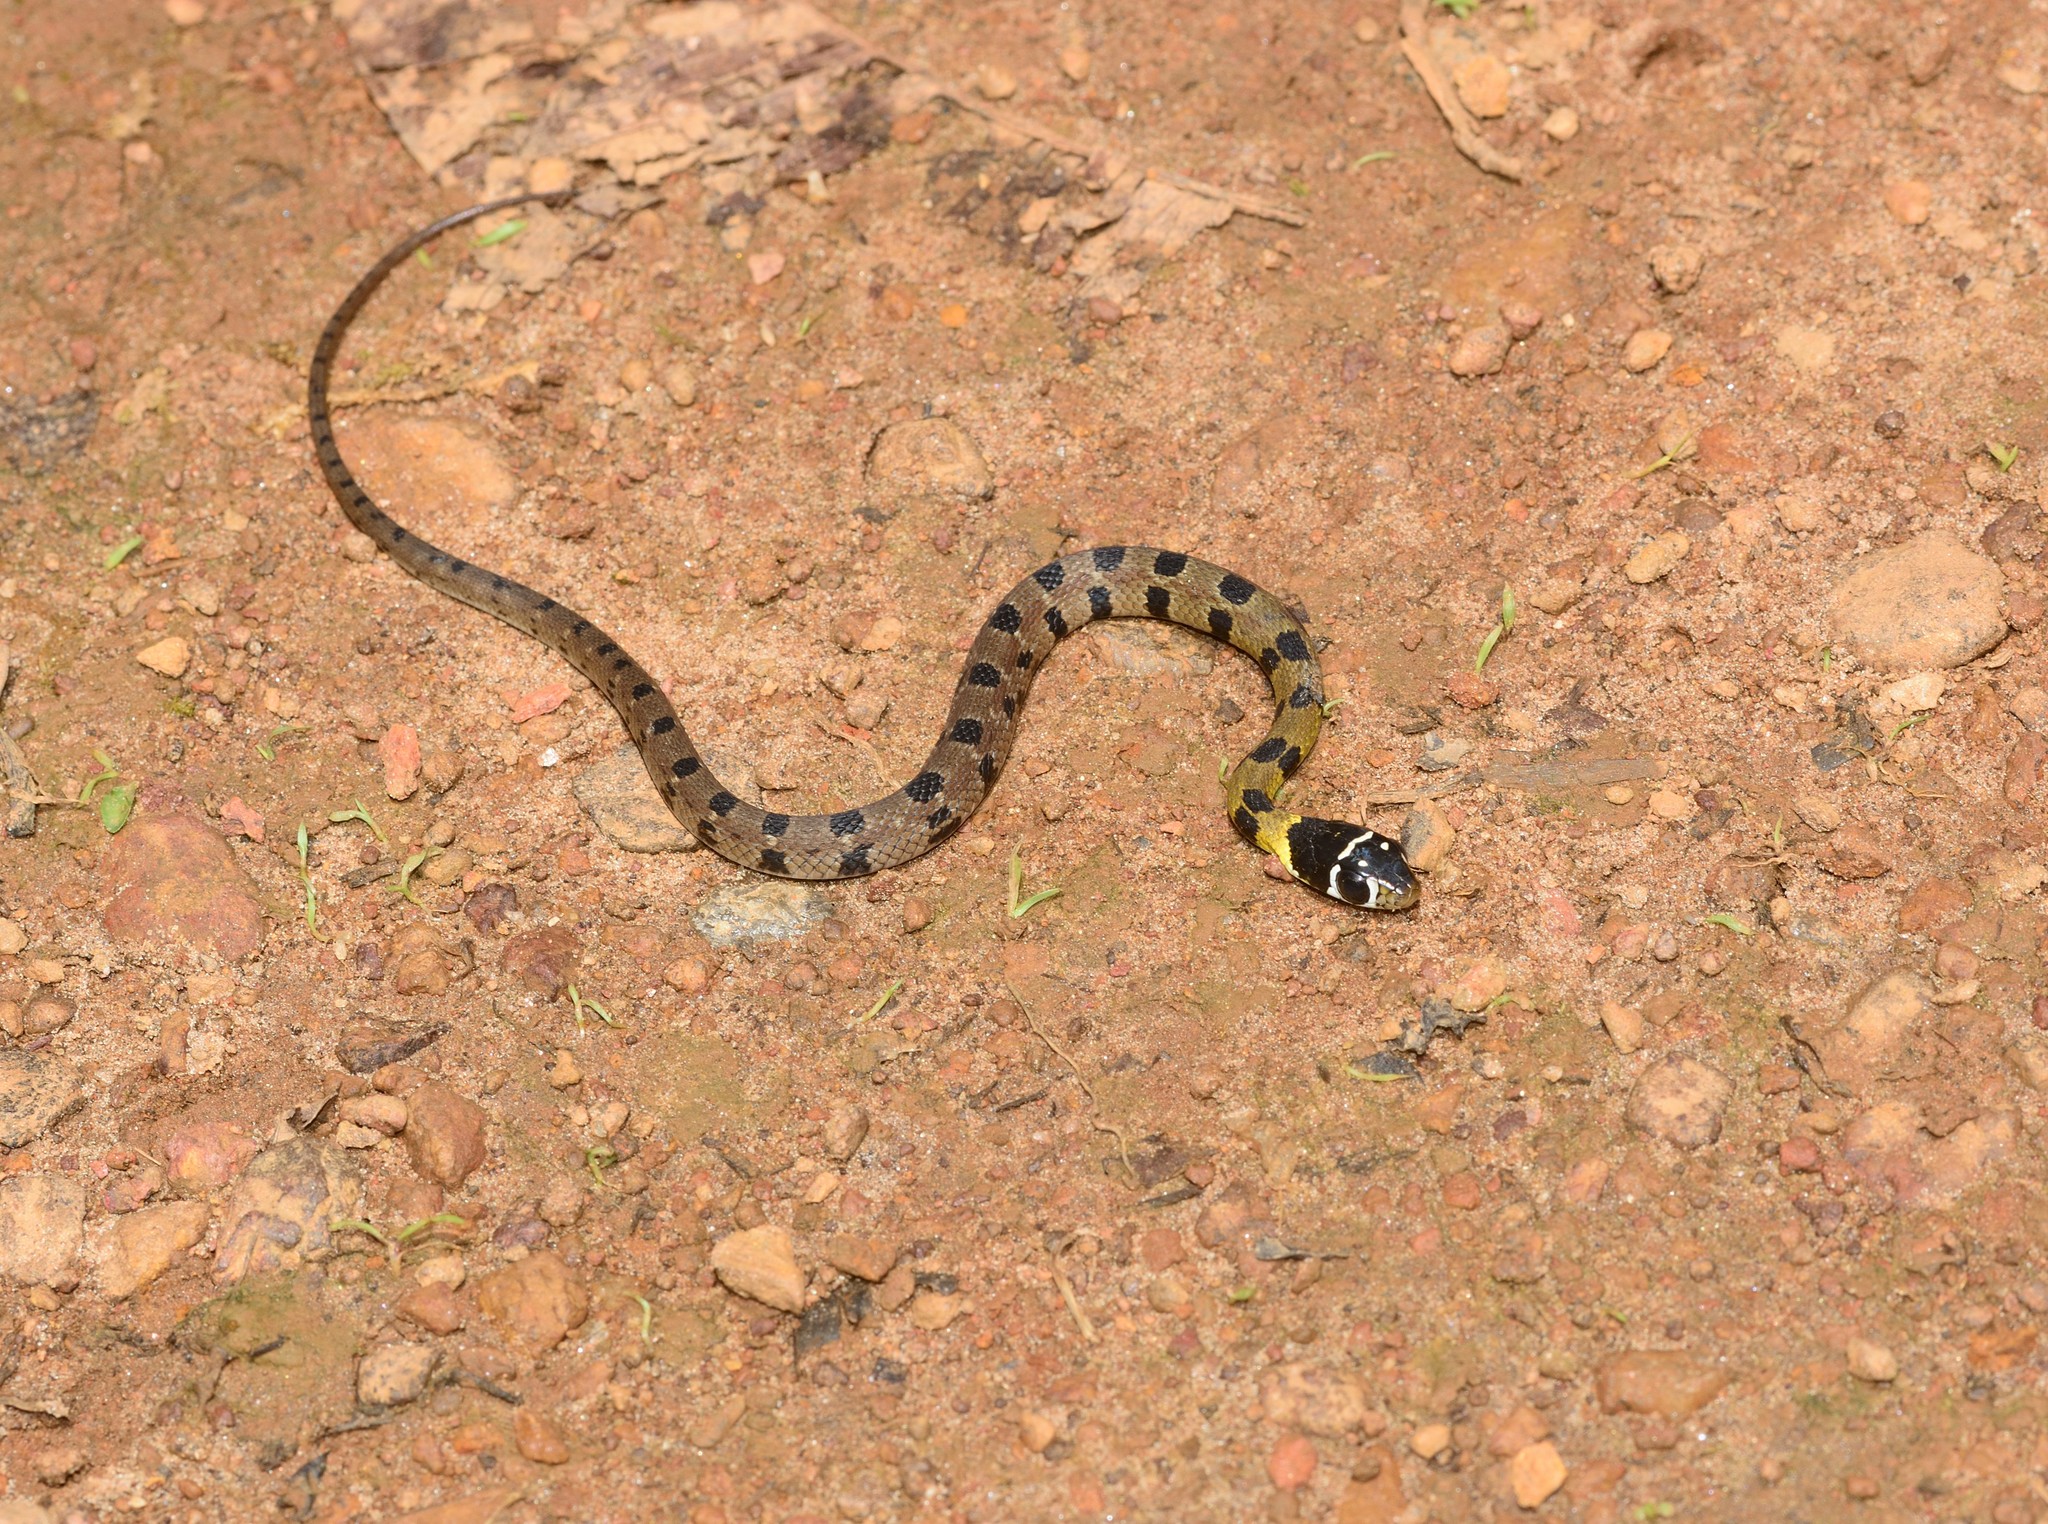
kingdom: Animalia
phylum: Chordata
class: Squamata
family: Colubridae
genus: Hebius
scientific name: Hebius monticola
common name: Wynad keelback
